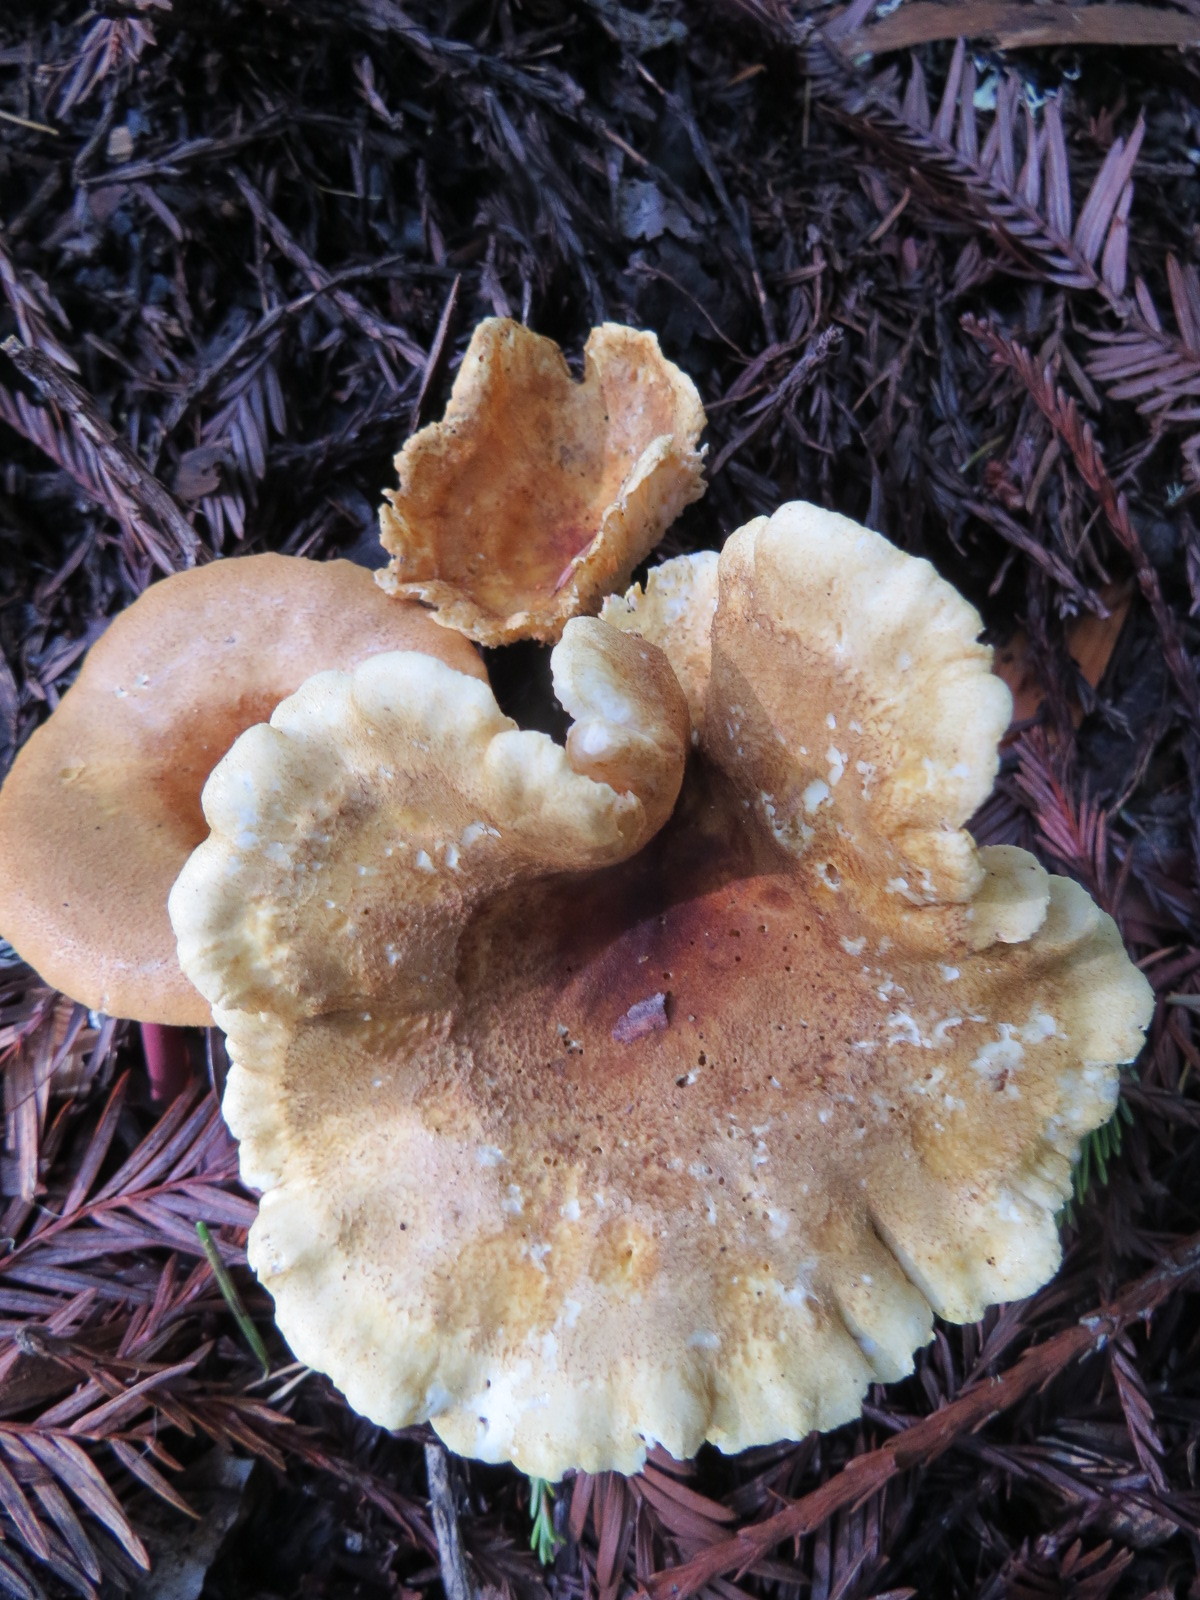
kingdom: Fungi
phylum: Basidiomycota
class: Agaricomycetes
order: Boletales
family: Hygrophoropsidaceae
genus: Hygrophoropsis
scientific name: Hygrophoropsis aurantiaca
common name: False chanterelle
